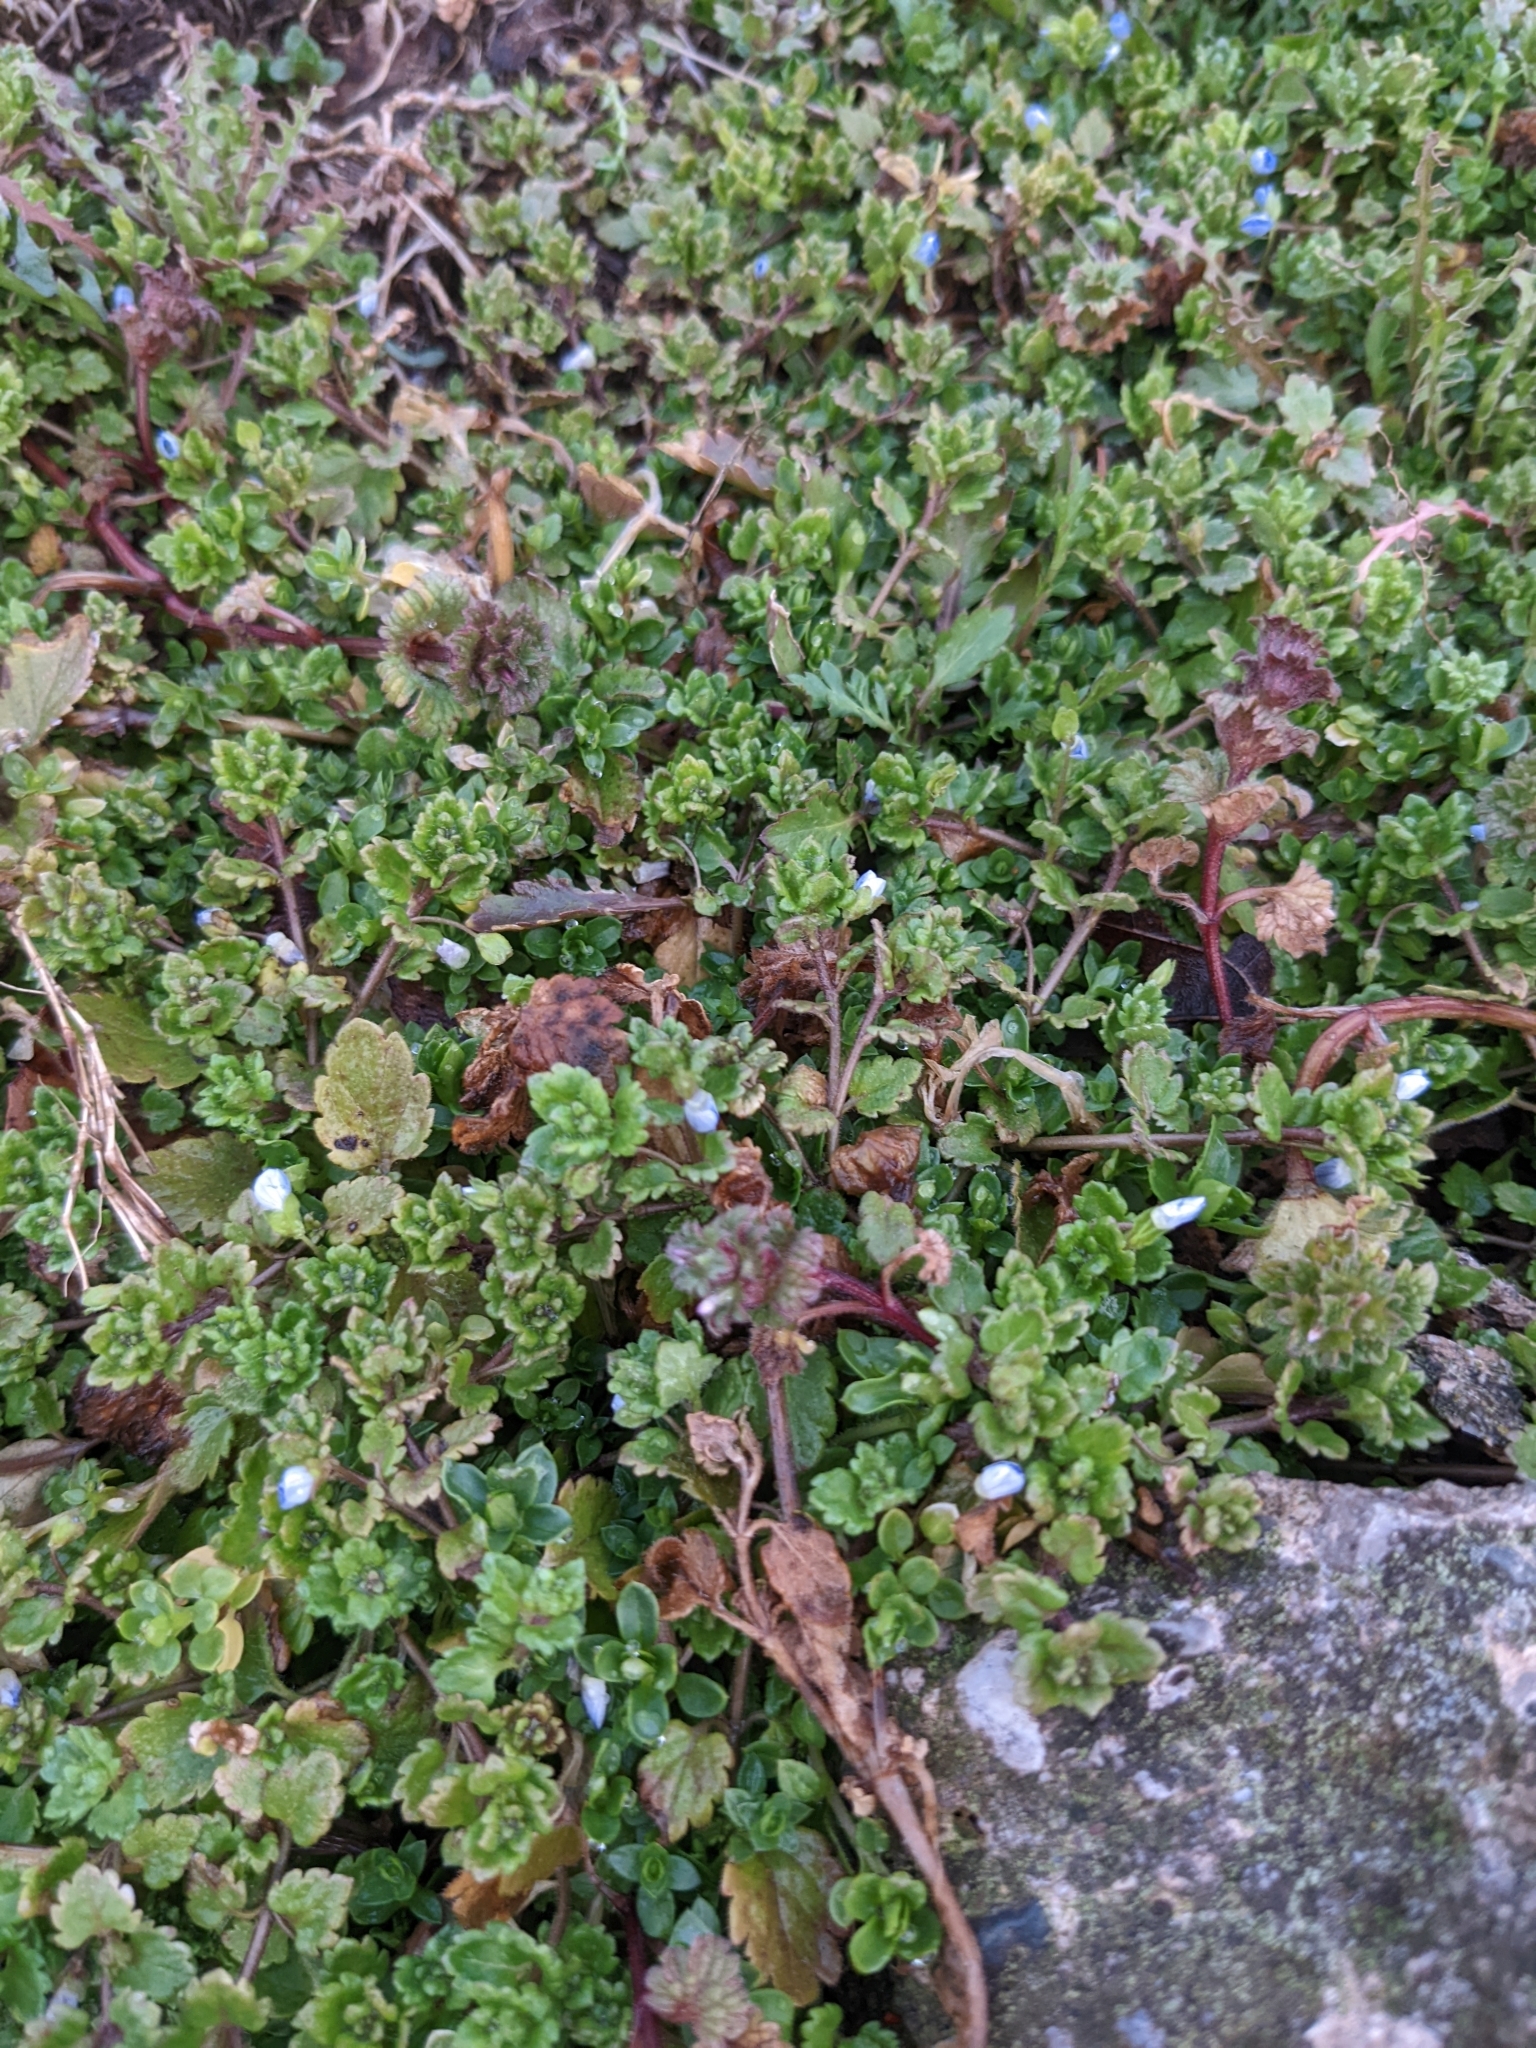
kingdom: Plantae
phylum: Tracheophyta
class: Magnoliopsida
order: Lamiales
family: Plantaginaceae
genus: Veronica
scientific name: Veronica persica
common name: Common field-speedwell
